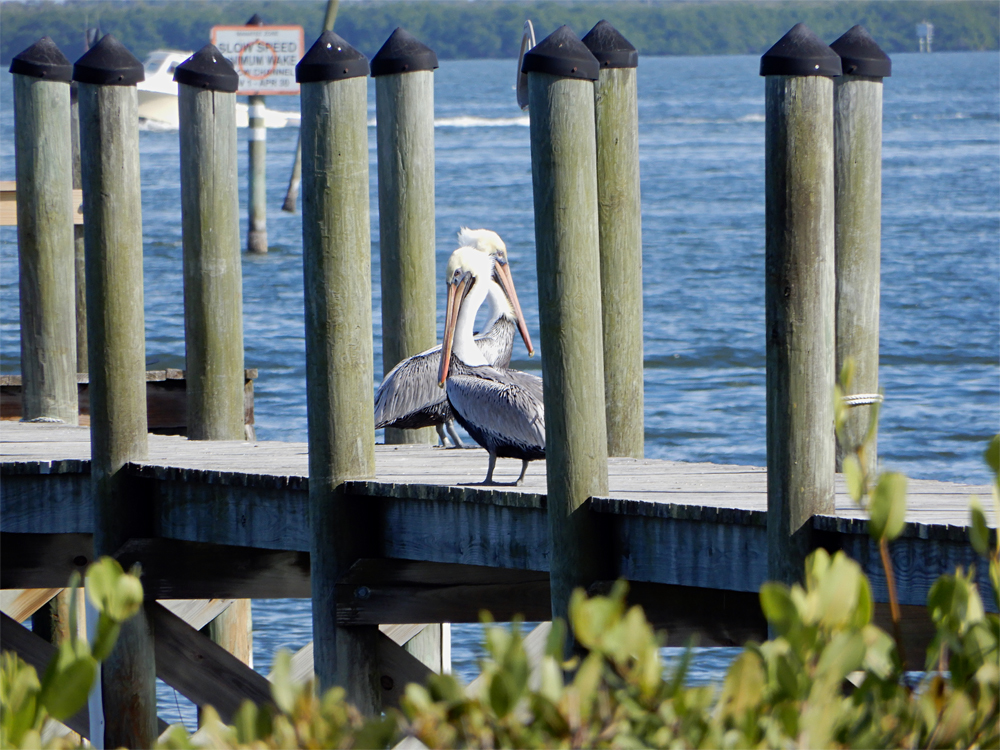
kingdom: Animalia
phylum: Chordata
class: Aves
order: Pelecaniformes
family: Pelecanidae
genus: Pelecanus
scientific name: Pelecanus occidentalis
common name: Brown pelican
